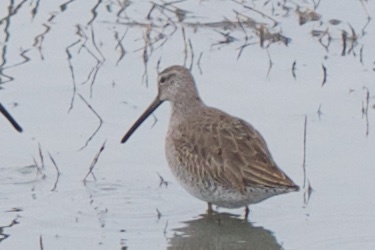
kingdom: Animalia
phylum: Chordata
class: Aves
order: Charadriiformes
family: Scolopacidae
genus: Limnodromus
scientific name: Limnodromus scolopaceus
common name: Long-billed dowitcher
